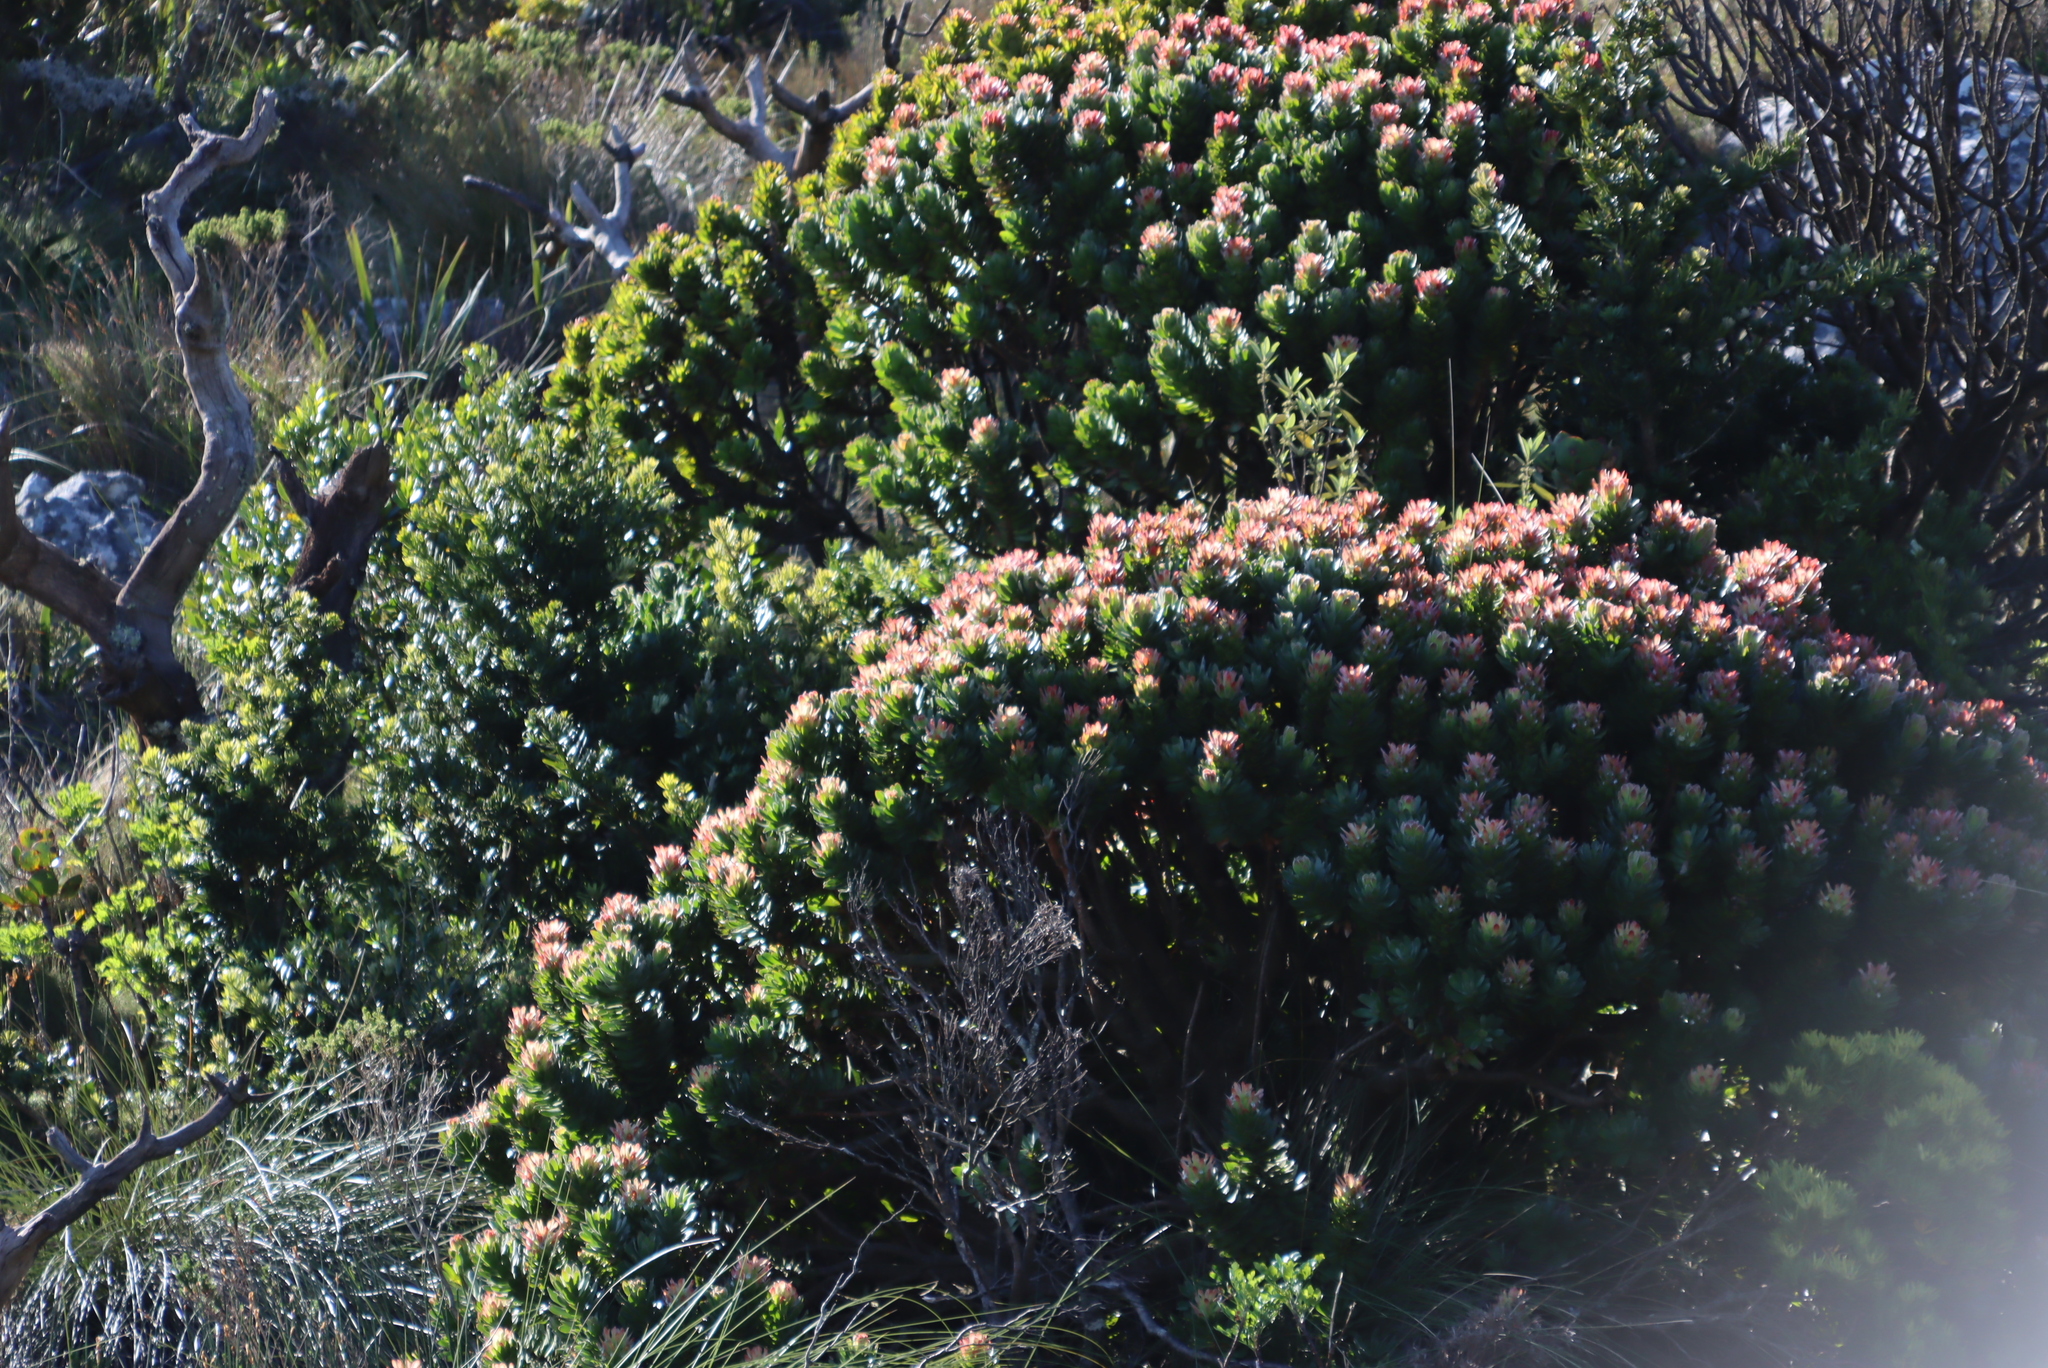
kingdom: Plantae
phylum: Tracheophyta
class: Magnoliopsida
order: Proteales
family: Proteaceae
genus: Mimetes
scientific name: Mimetes fimbriifolius
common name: Fringed bottlebrush
